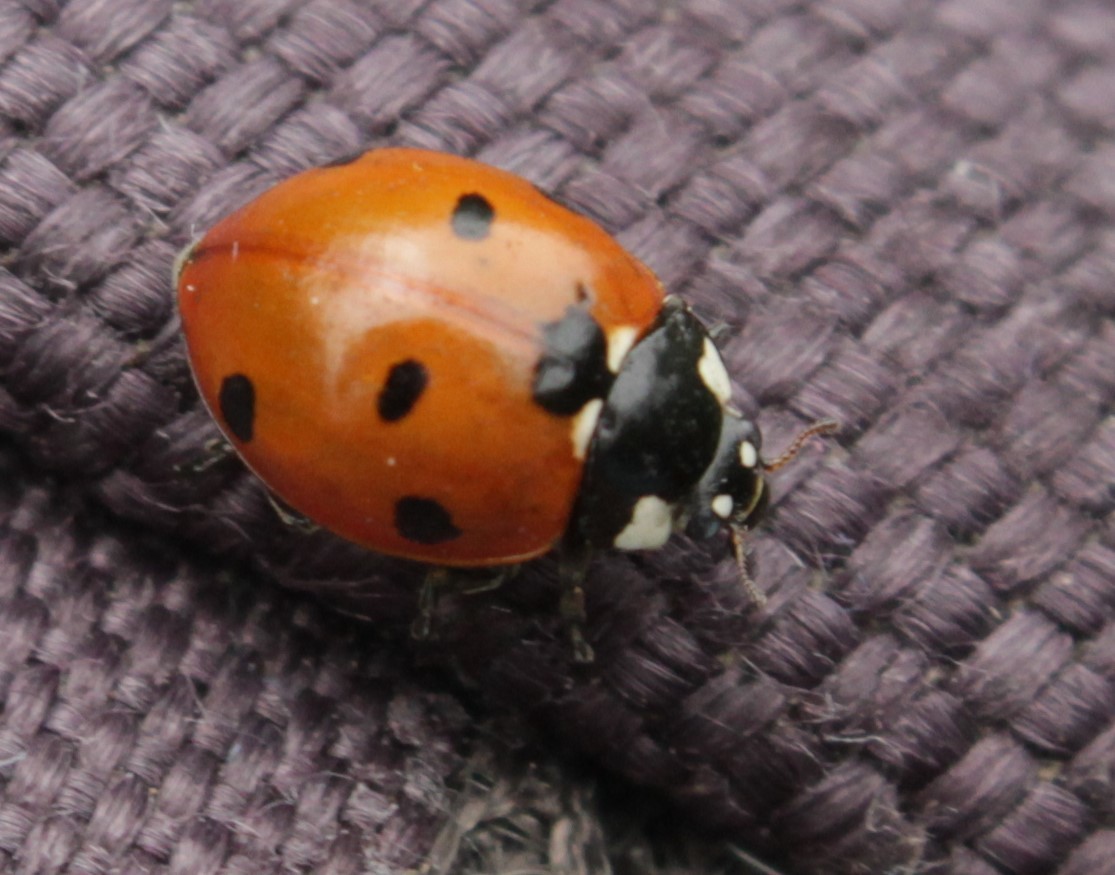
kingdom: Animalia
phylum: Arthropoda
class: Insecta
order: Coleoptera
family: Coccinellidae
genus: Coccinella
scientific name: Coccinella septempunctata
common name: Sevenspotted lady beetle
